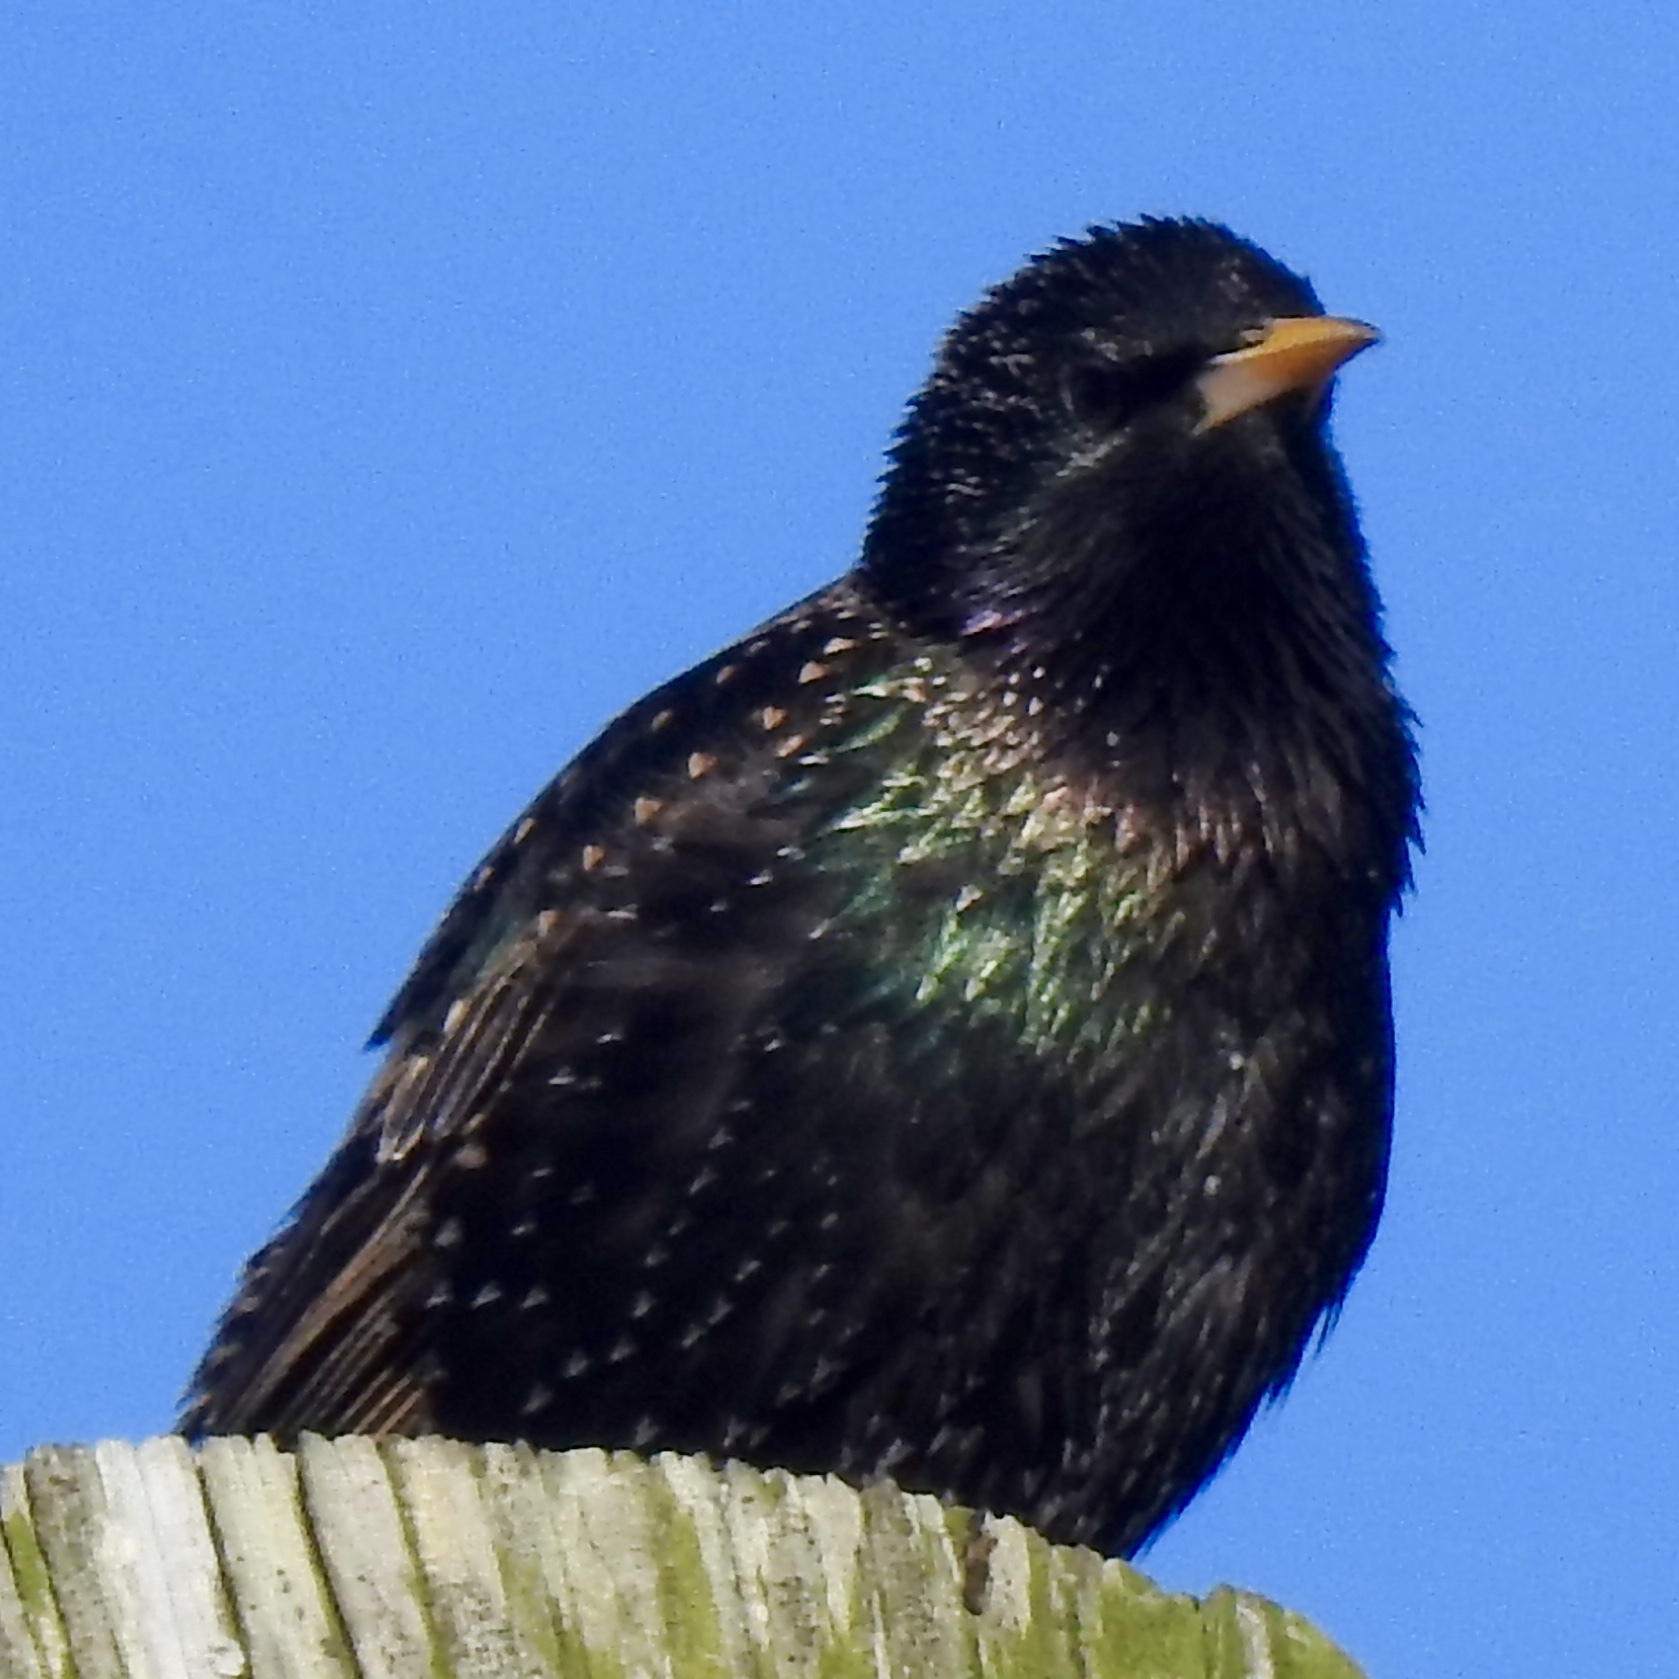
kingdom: Animalia
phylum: Chordata
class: Aves
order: Passeriformes
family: Sturnidae
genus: Sturnus
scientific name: Sturnus vulgaris
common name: Common starling
